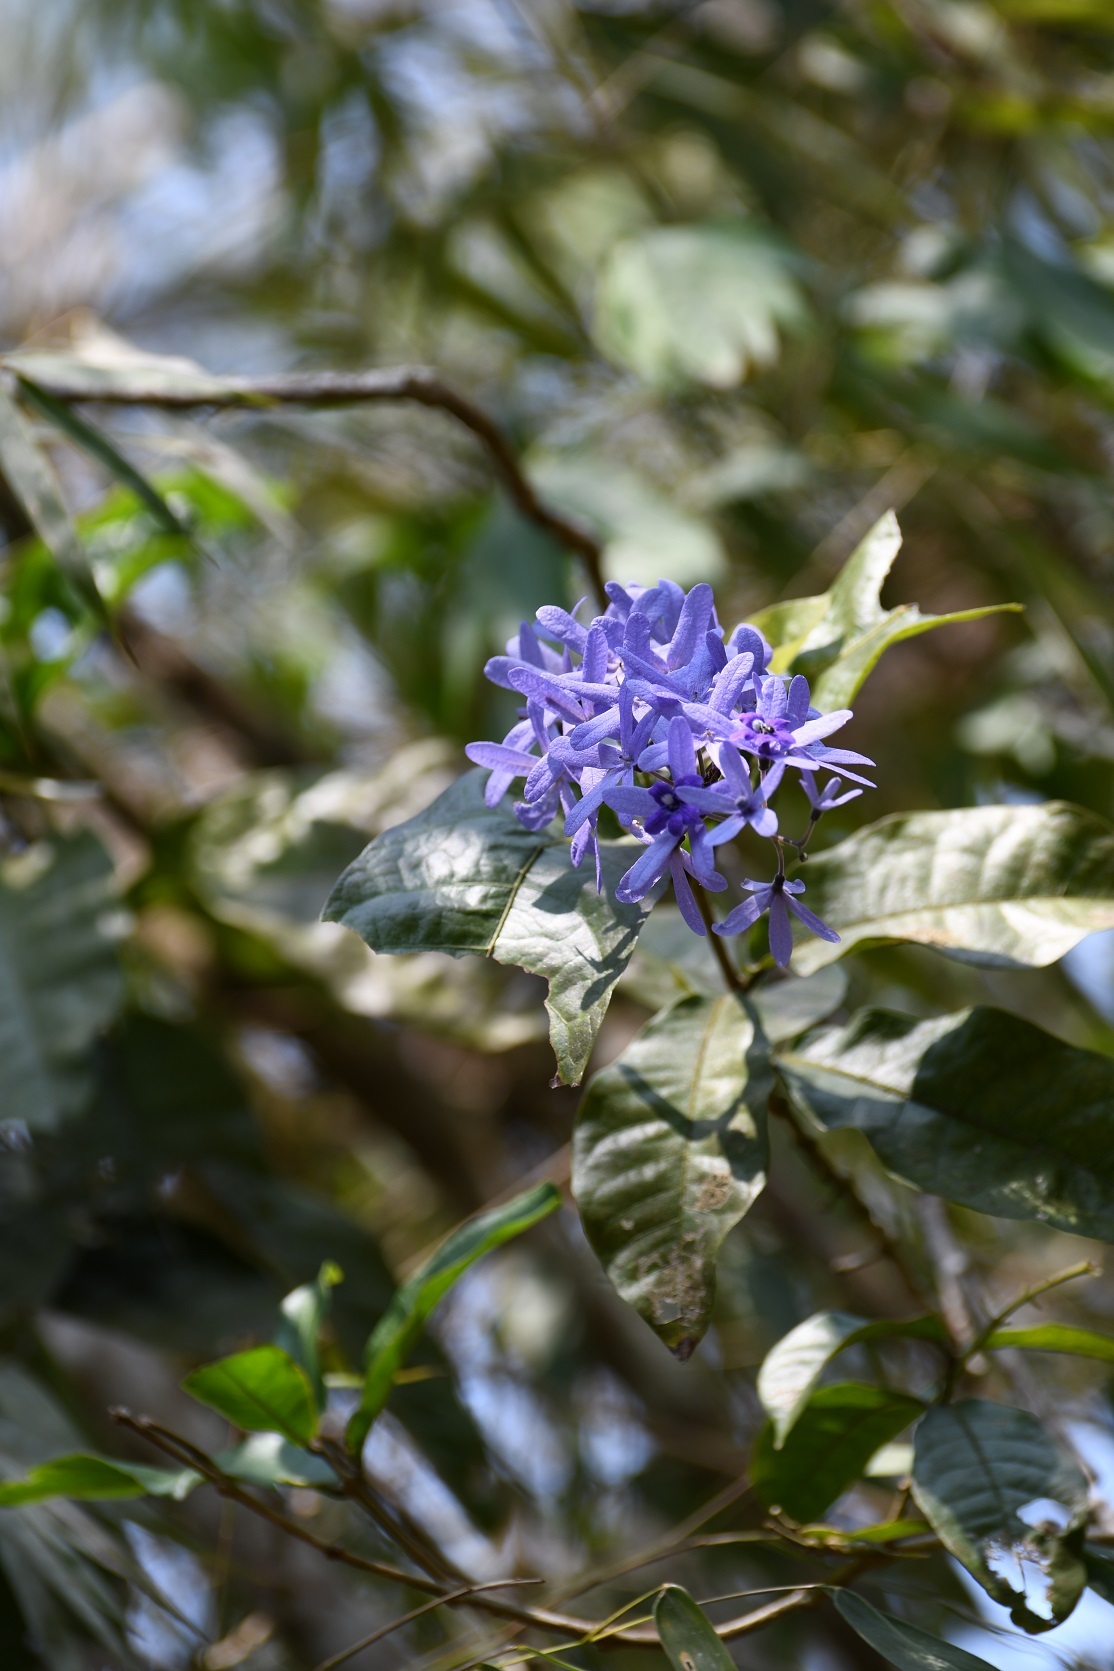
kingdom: Plantae
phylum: Tracheophyta
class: Magnoliopsida
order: Lamiales
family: Verbenaceae
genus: Petrea
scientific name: Petrea volubilis
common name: Queen's-wreath
